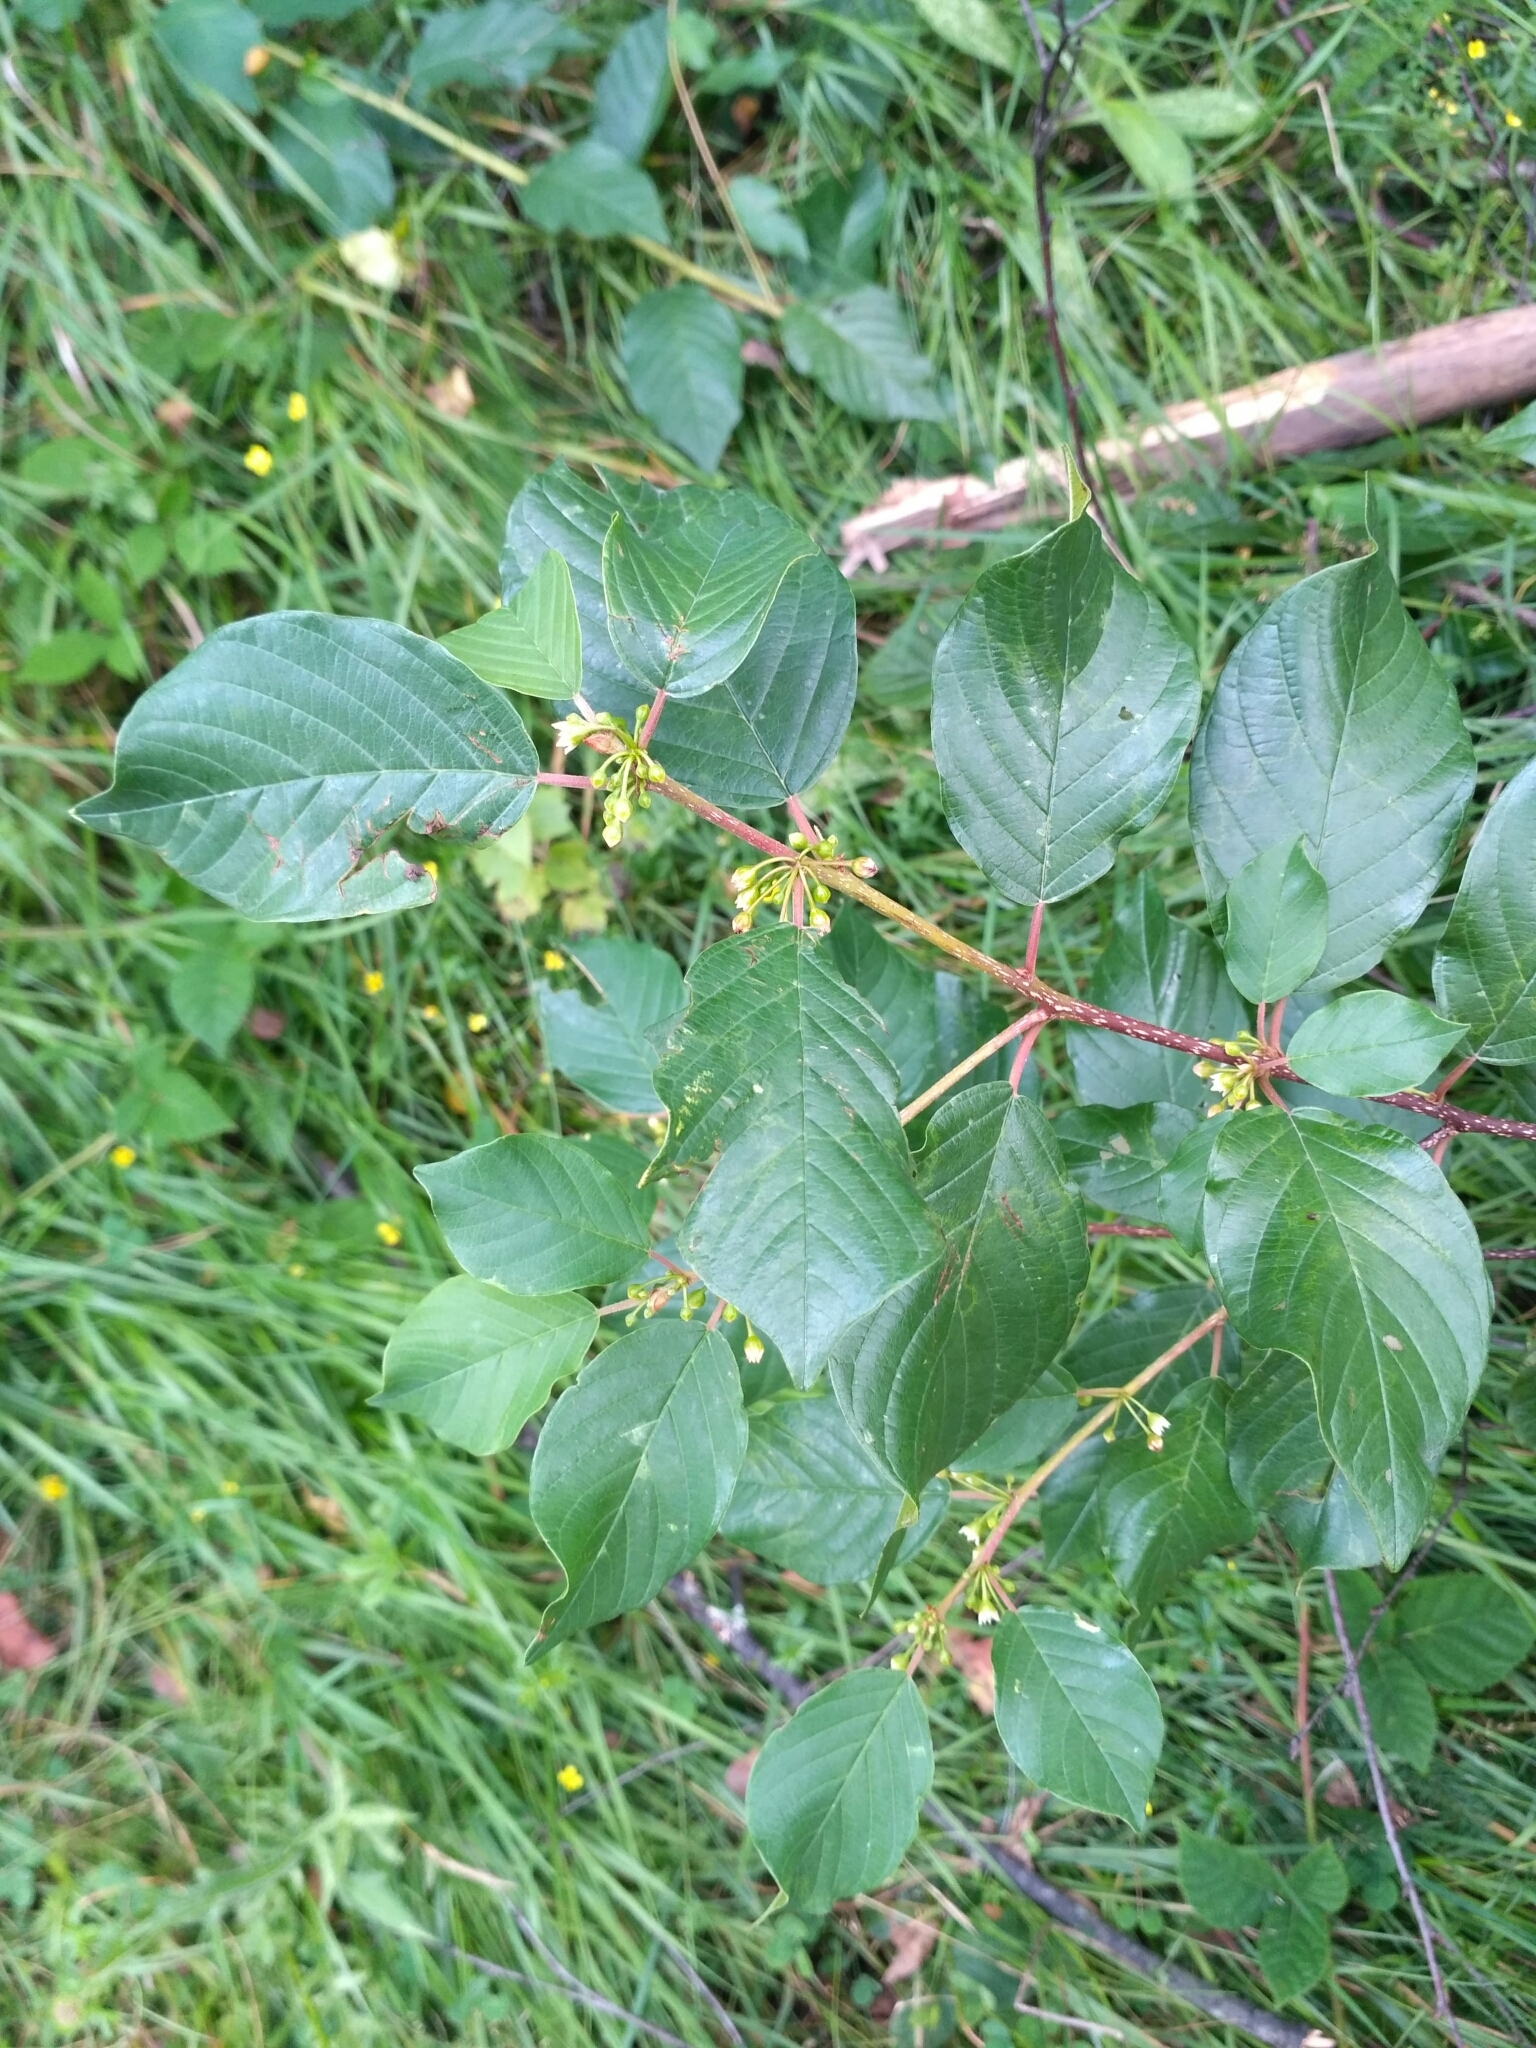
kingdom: Plantae
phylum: Tracheophyta
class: Magnoliopsida
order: Rosales
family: Rhamnaceae
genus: Frangula
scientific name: Frangula alnus
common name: Alder buckthorn
